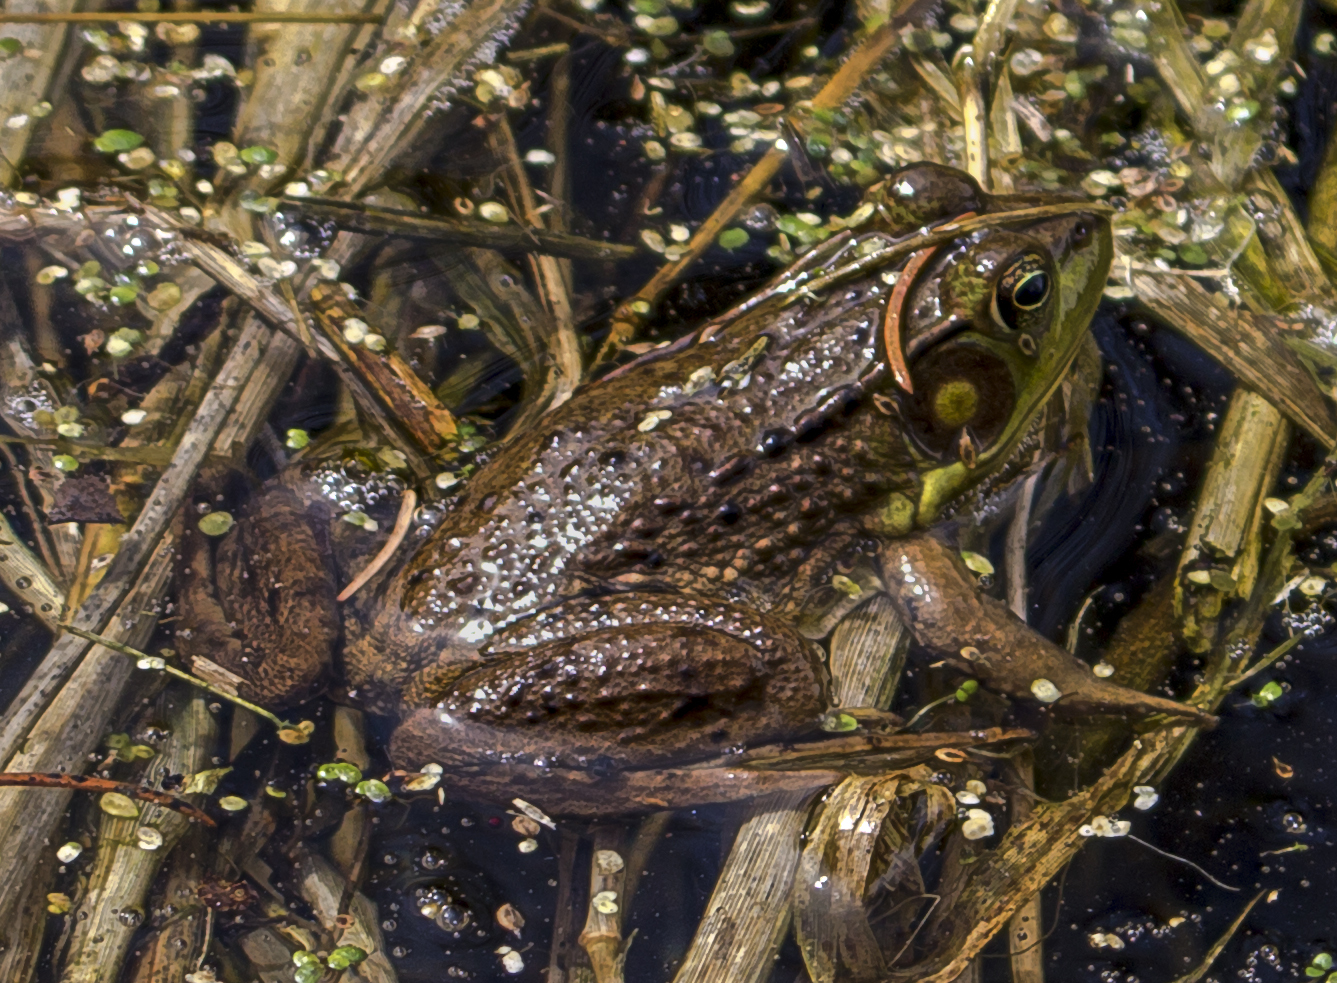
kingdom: Animalia
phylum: Chordata
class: Amphibia
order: Anura
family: Ranidae
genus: Lithobates
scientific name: Lithobates clamitans
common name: Green frog
